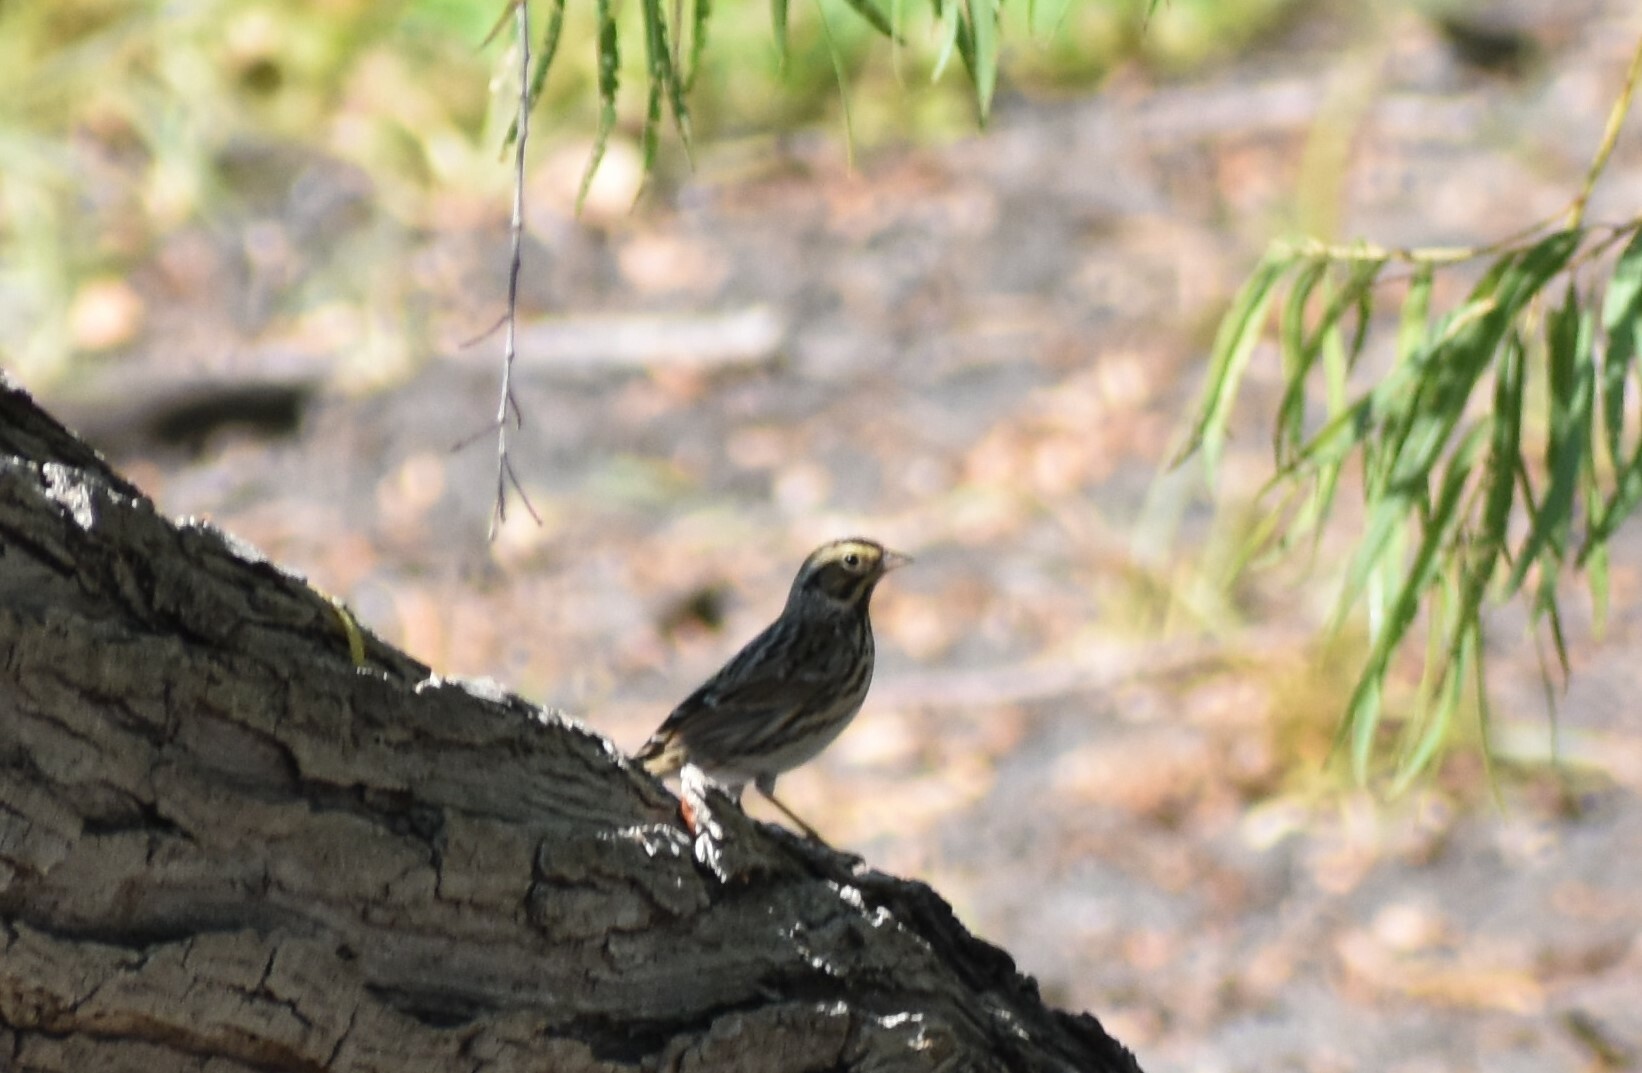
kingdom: Animalia
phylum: Chordata
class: Aves
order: Passeriformes
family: Passerellidae
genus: Passerculus
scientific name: Passerculus sandwichensis
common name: Savannah sparrow
